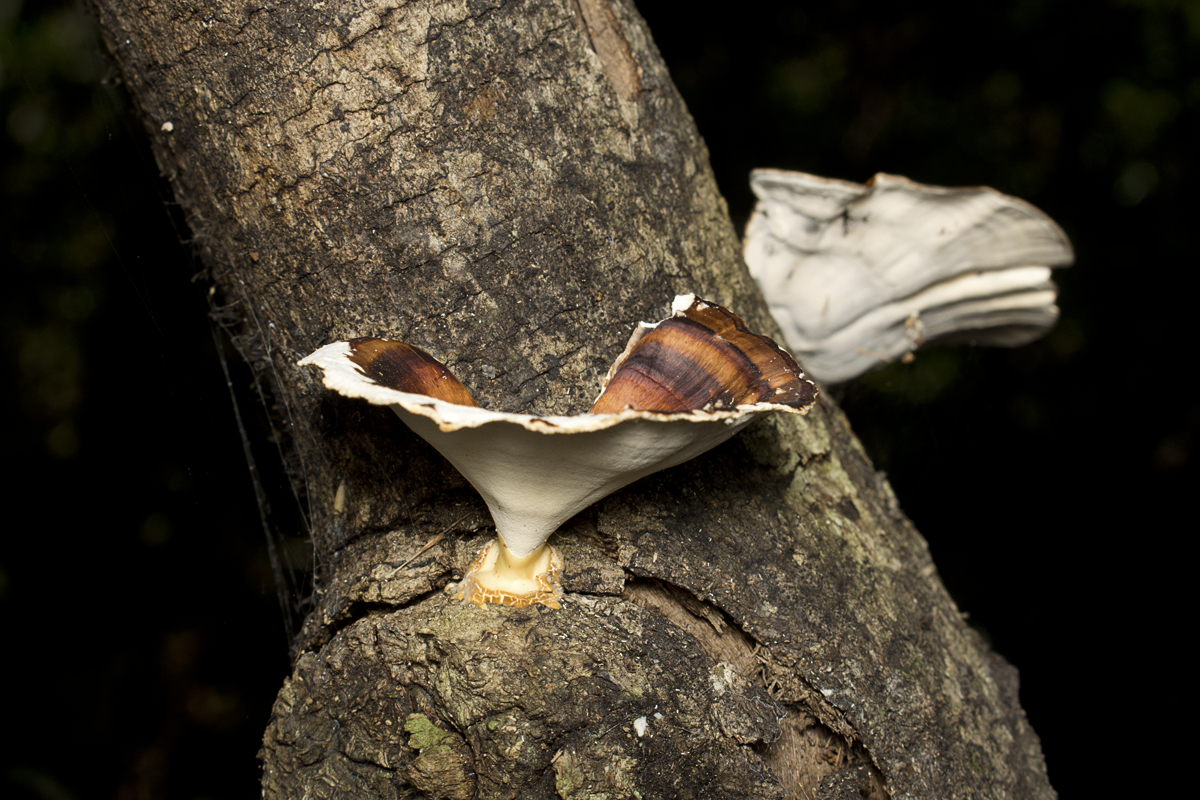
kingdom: Fungi
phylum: Basidiomycota
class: Agaricomycetes
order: Polyporales
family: Polyporaceae
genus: Microporus
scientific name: Microporus xanthopus
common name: Yellow-stemmed micropore
